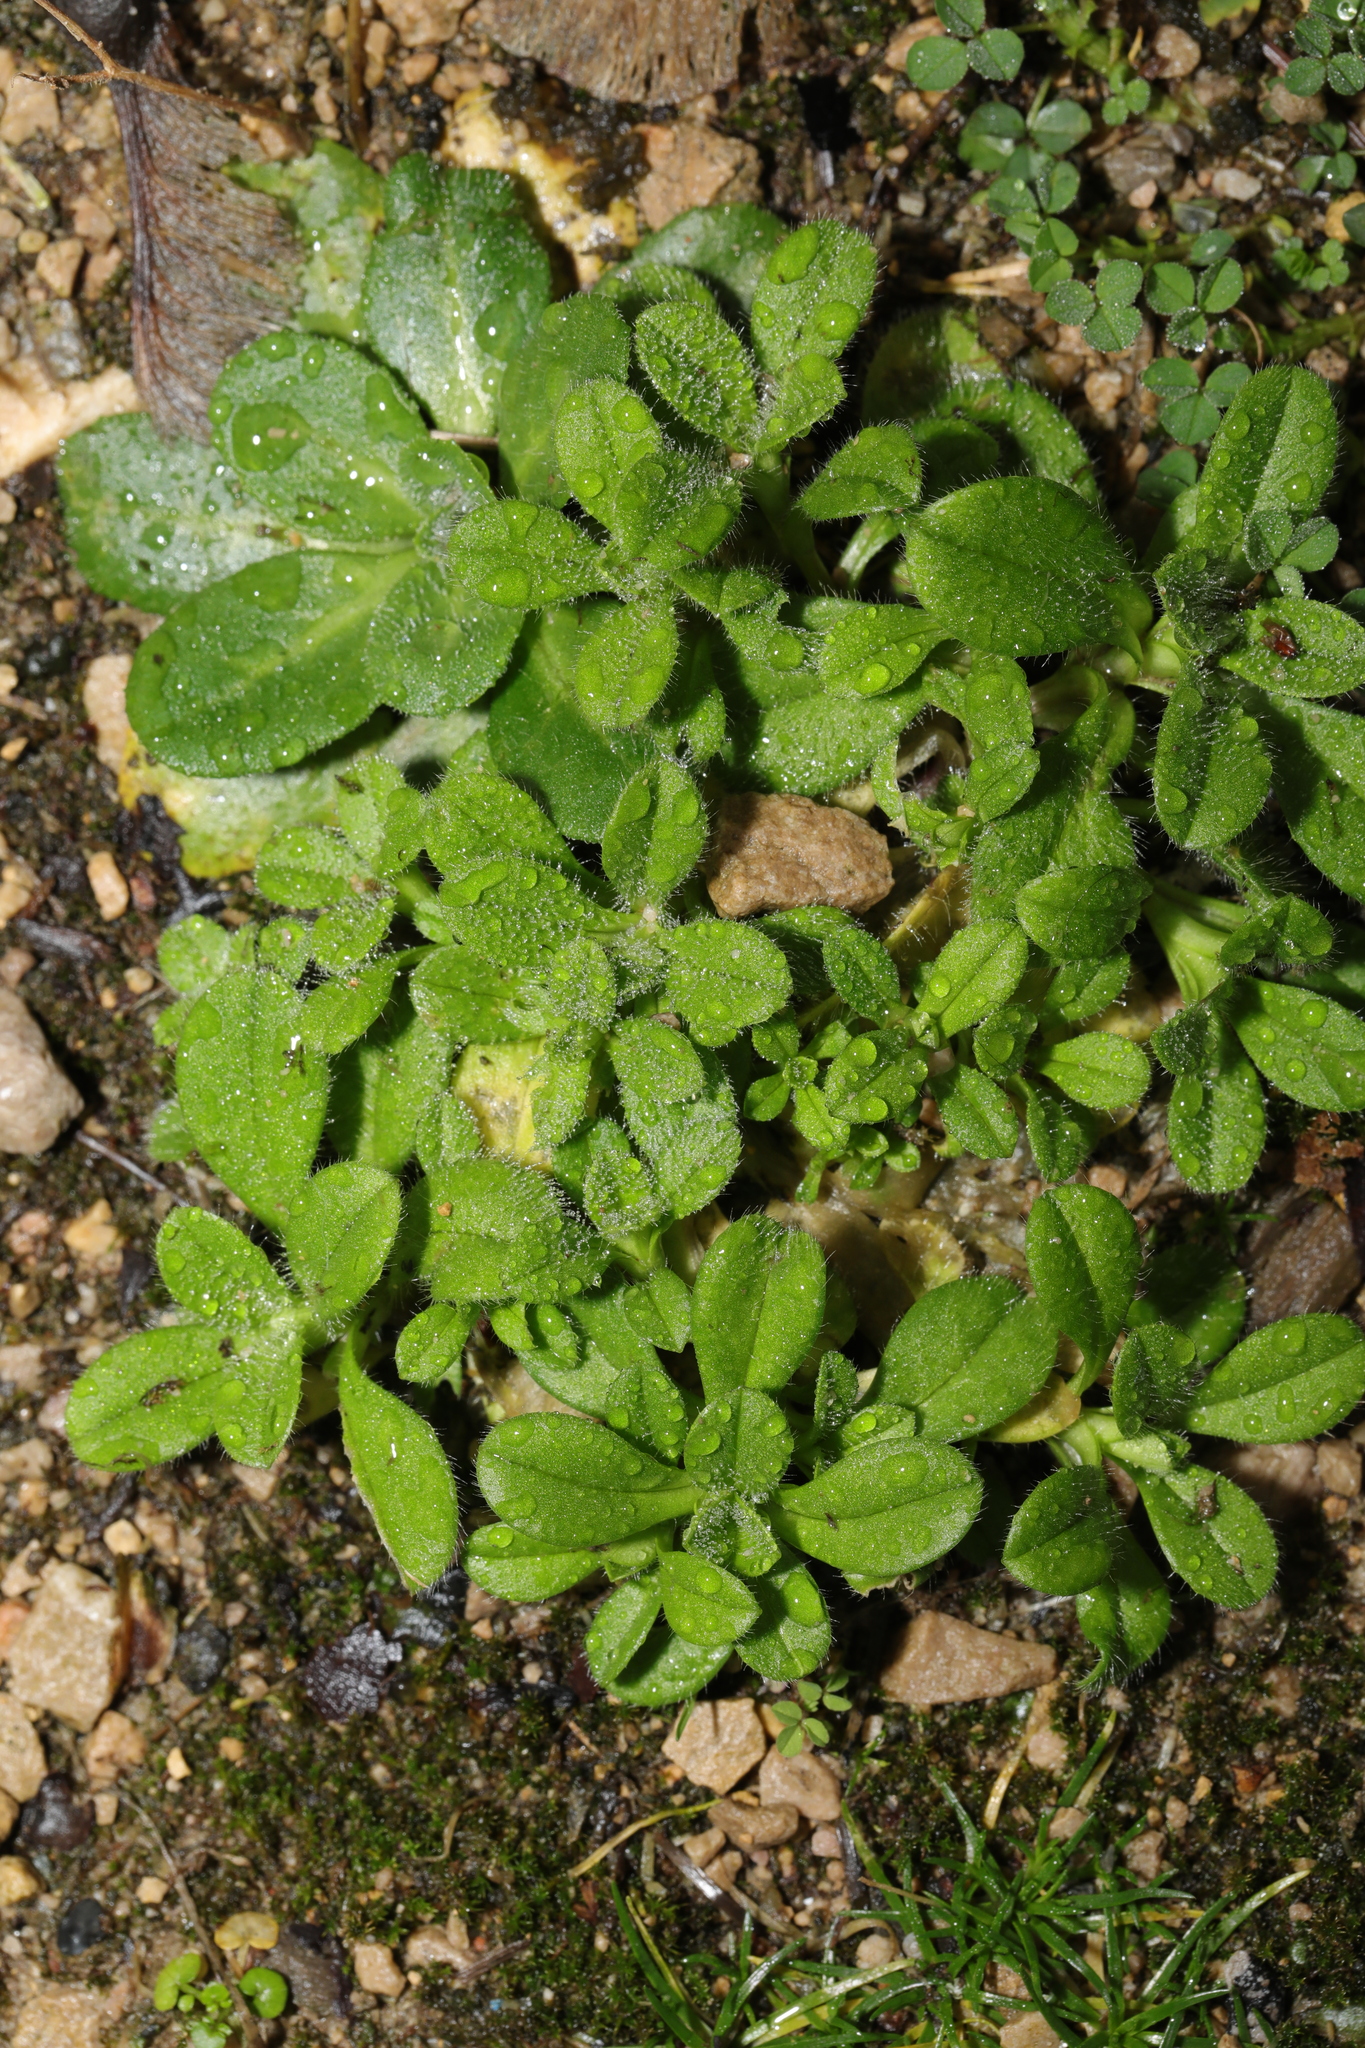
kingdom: Plantae
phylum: Tracheophyta
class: Magnoliopsida
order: Caryophyllales
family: Caryophyllaceae
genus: Cerastium
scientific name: Cerastium glomeratum
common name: Sticky chickweed
